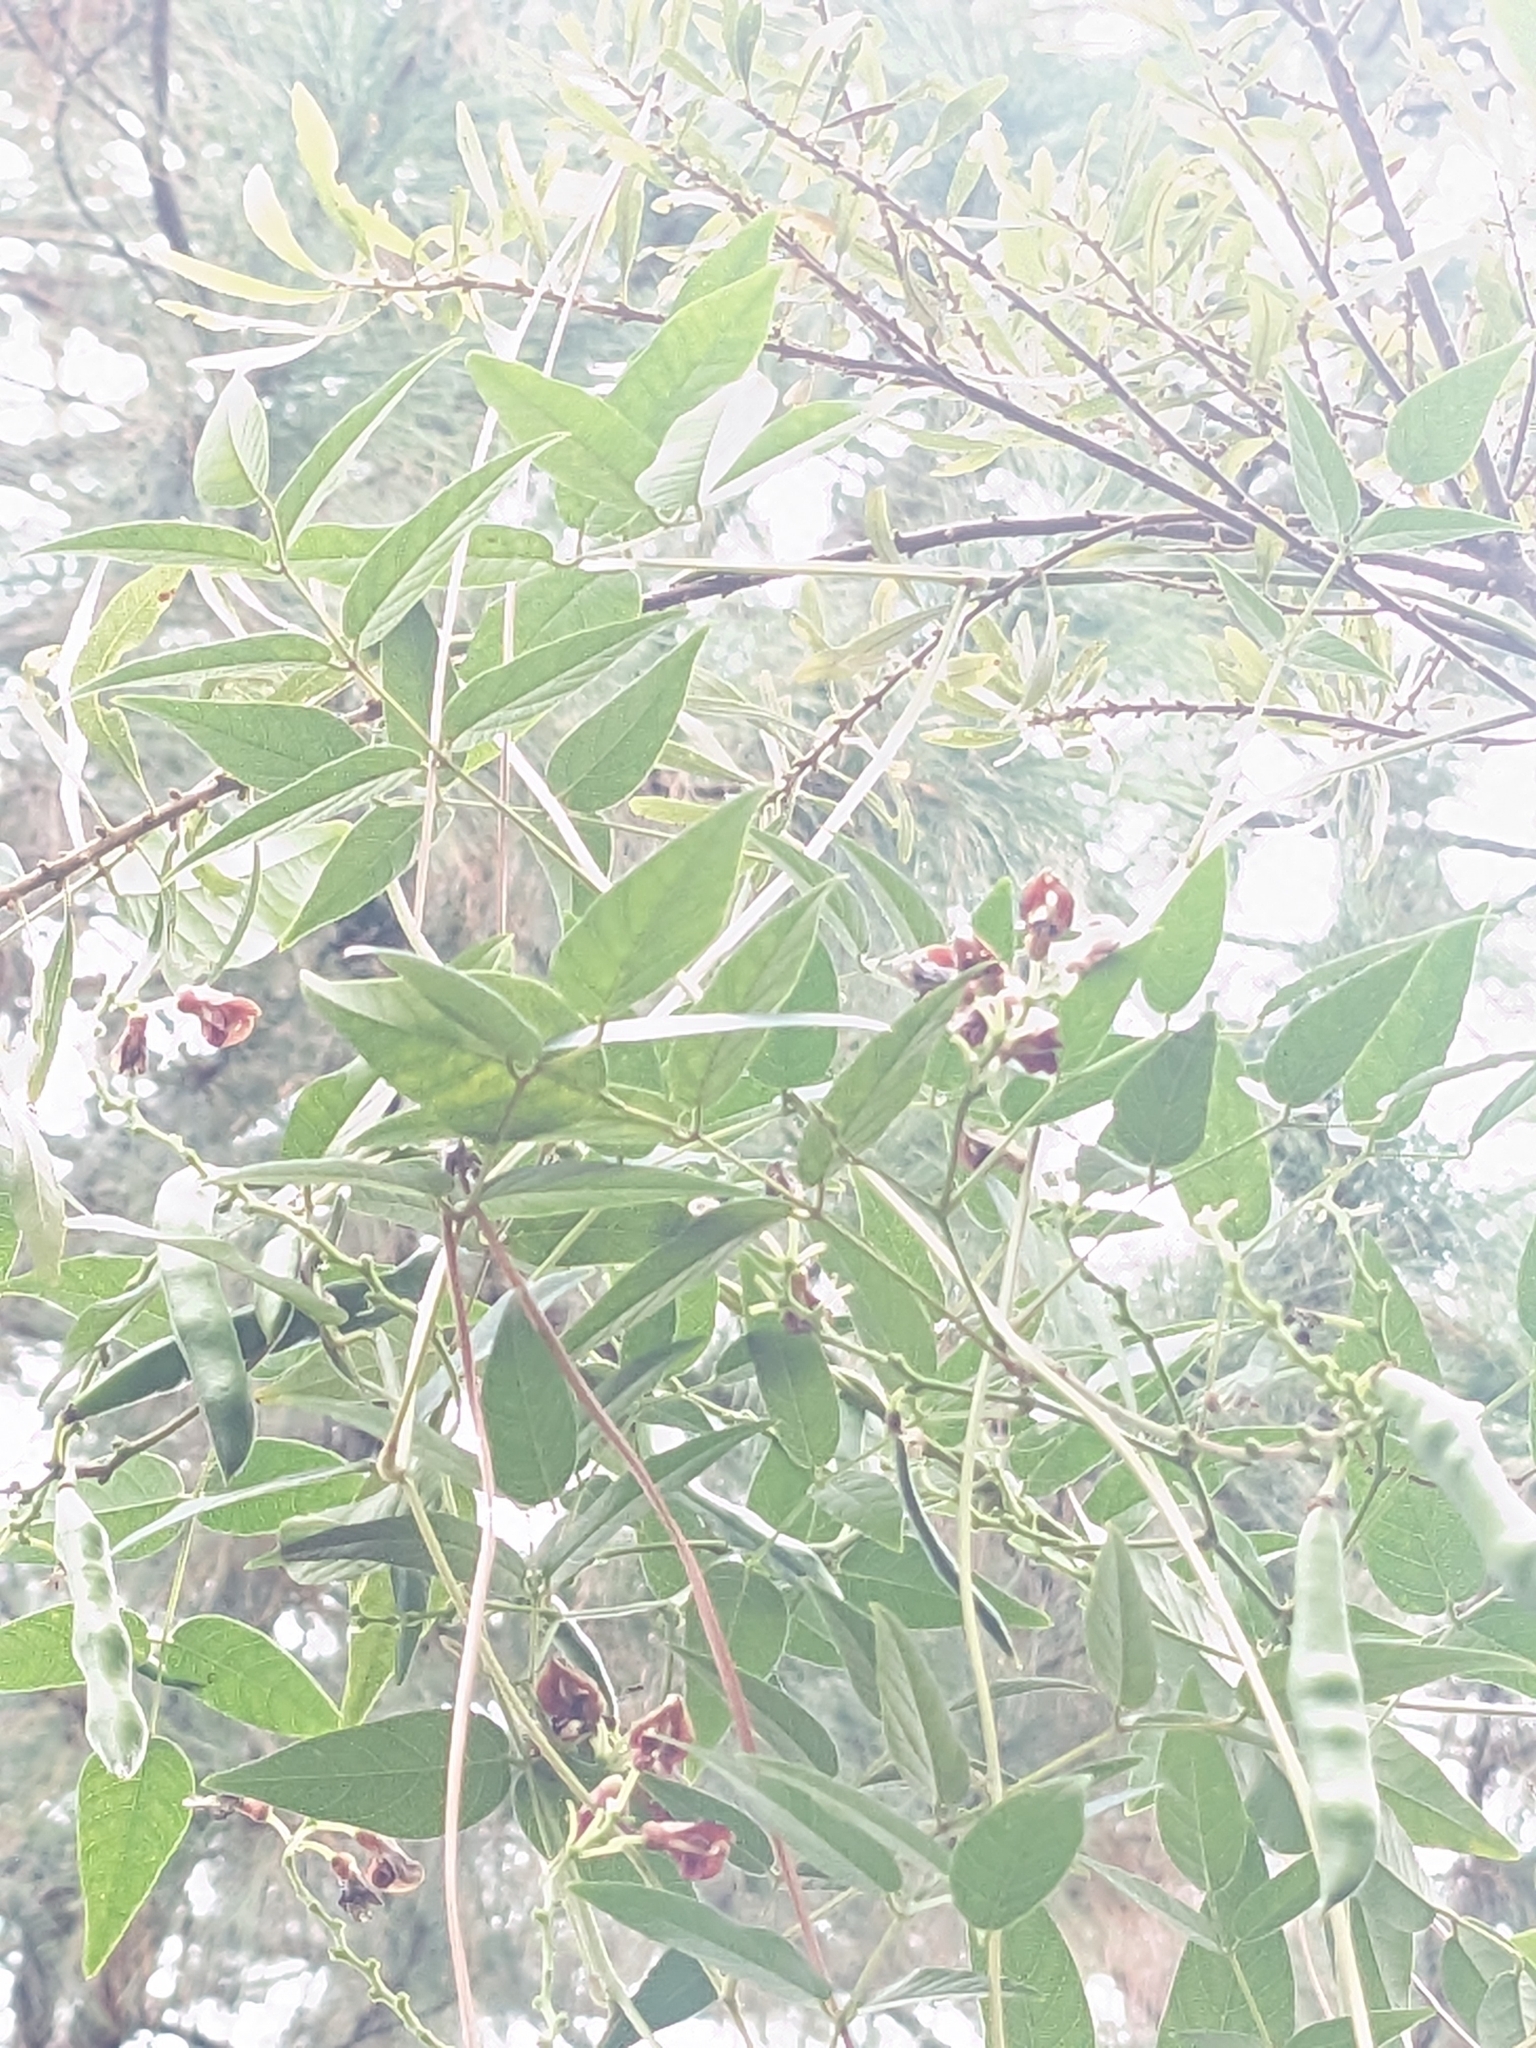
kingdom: Plantae
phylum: Tracheophyta
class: Magnoliopsida
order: Fabales
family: Fabaceae
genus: Apios
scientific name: Apios americana
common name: American potato-bean
